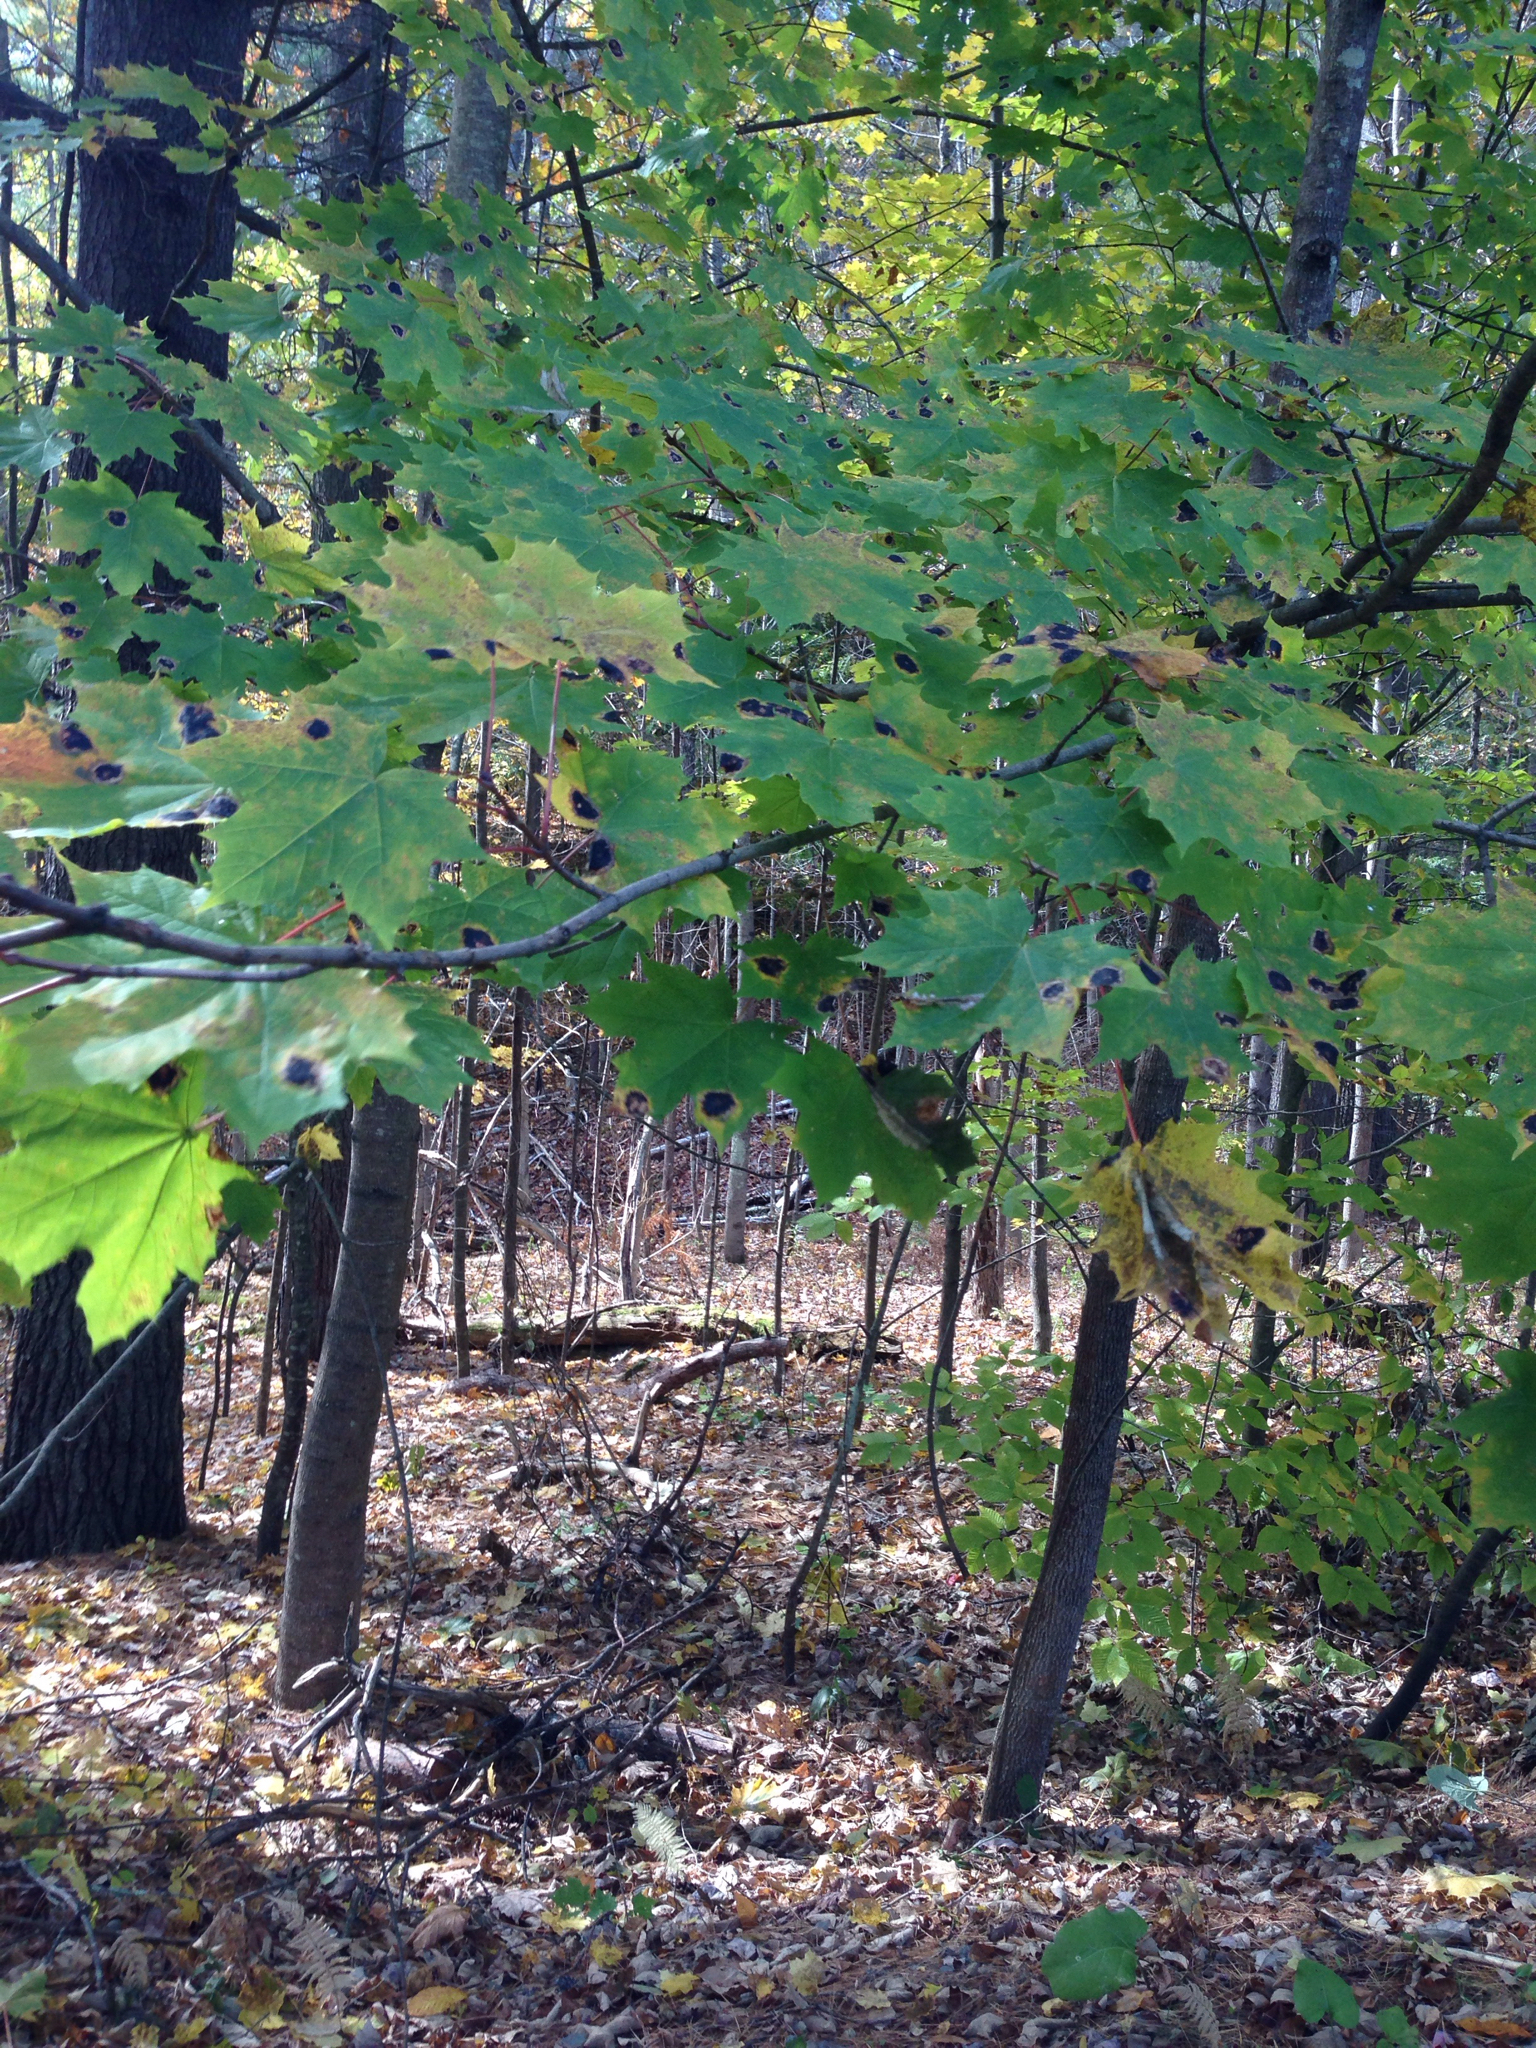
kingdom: Plantae
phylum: Tracheophyta
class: Magnoliopsida
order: Sapindales
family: Sapindaceae
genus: Acer
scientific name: Acer platanoides
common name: Norway maple
